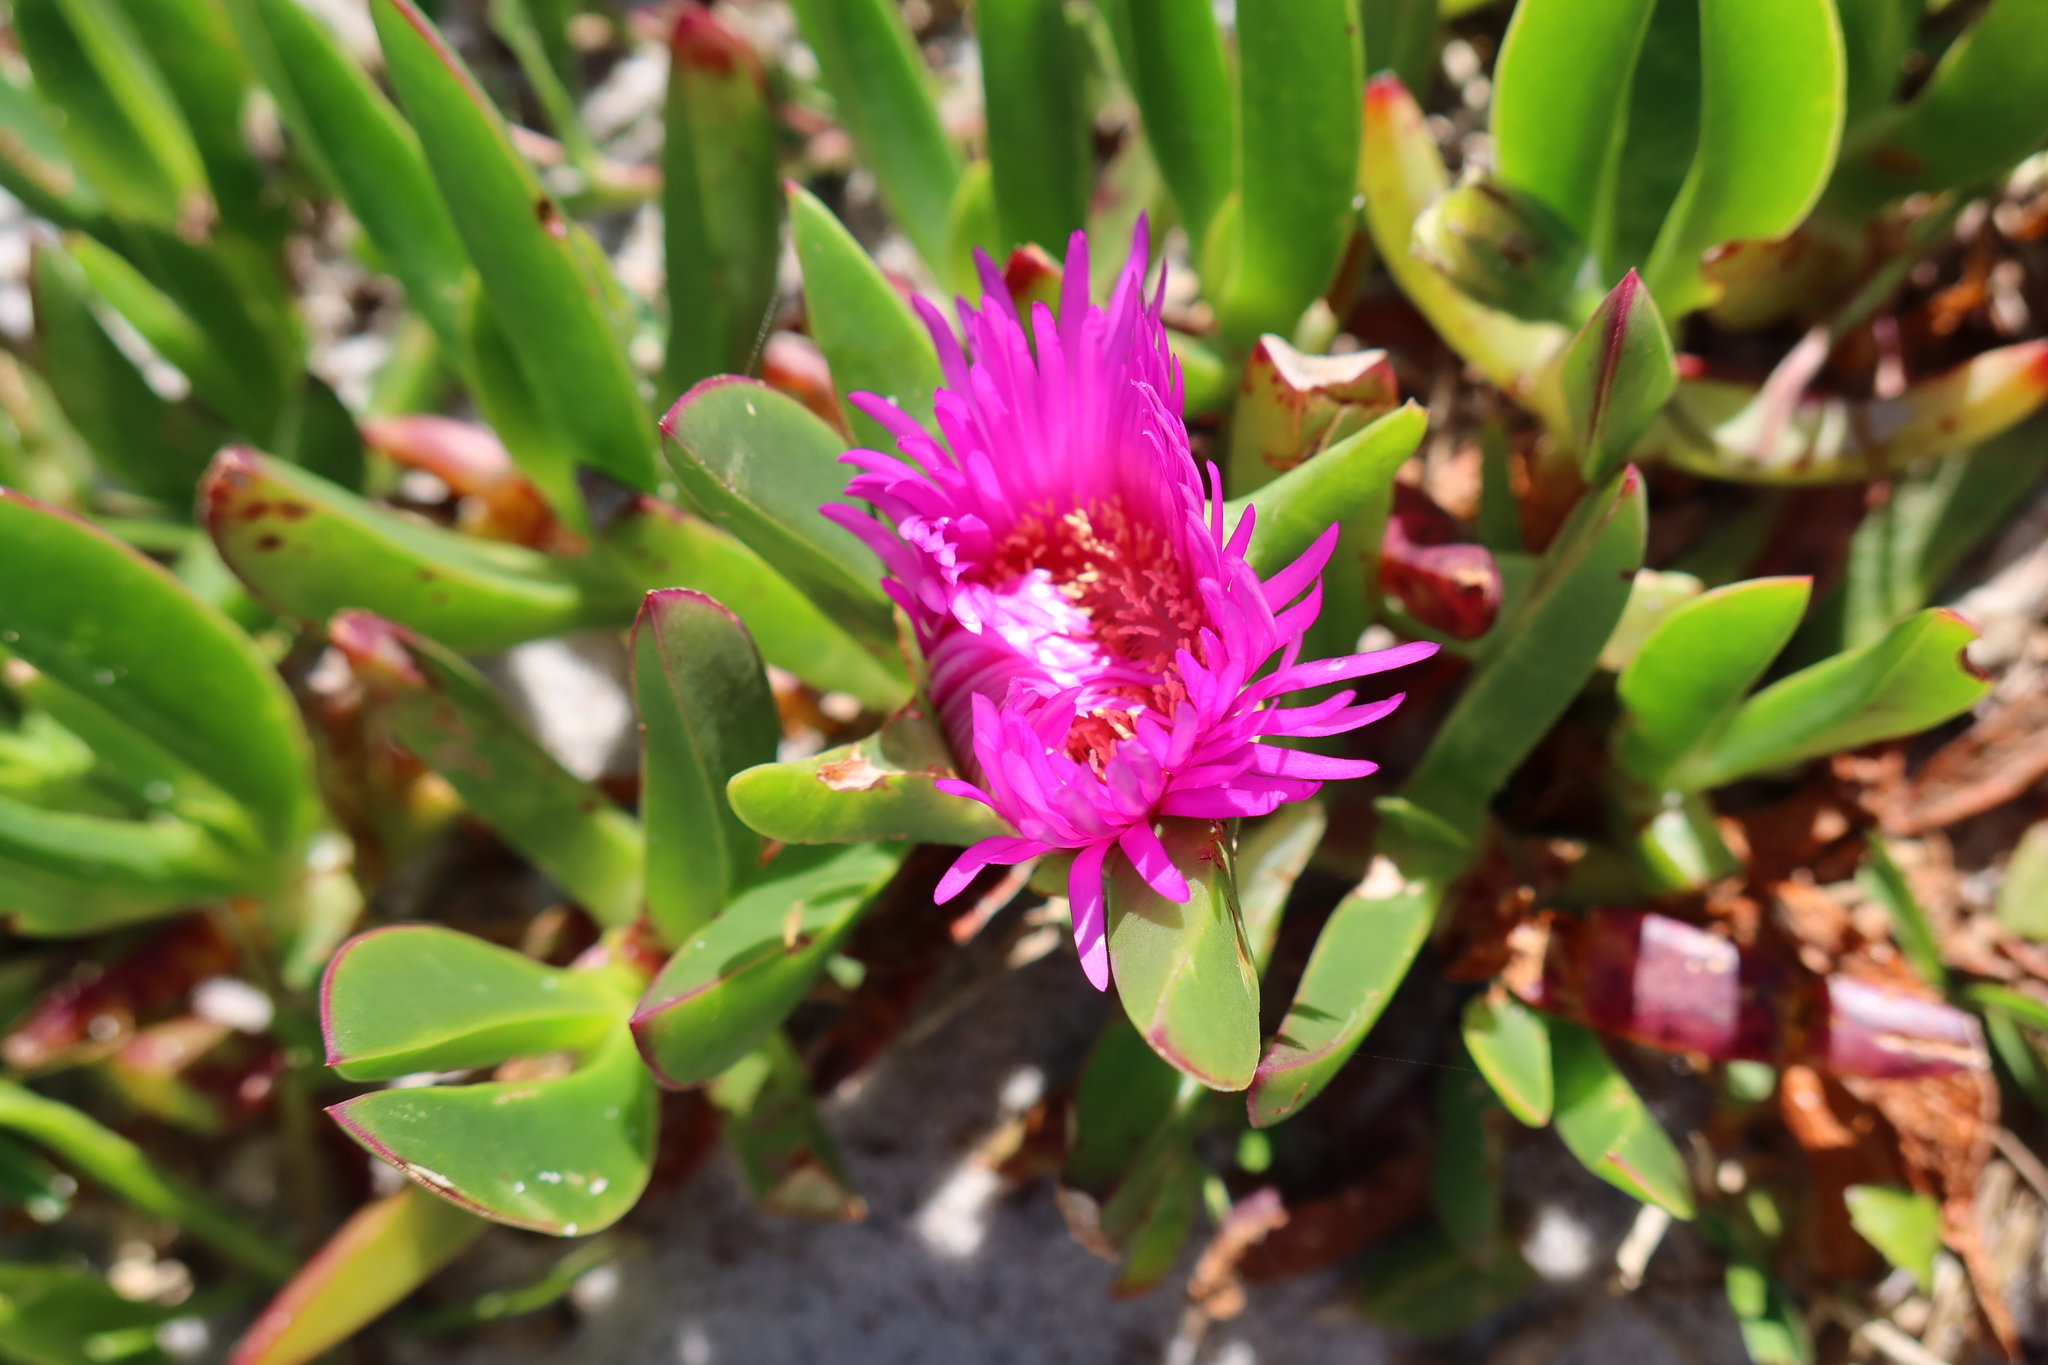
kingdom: Plantae
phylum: Tracheophyta
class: Magnoliopsida
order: Caryophyllales
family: Aizoaceae
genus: Carpobrotus
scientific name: Carpobrotus acinaciformis
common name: Sally-my-handsome
